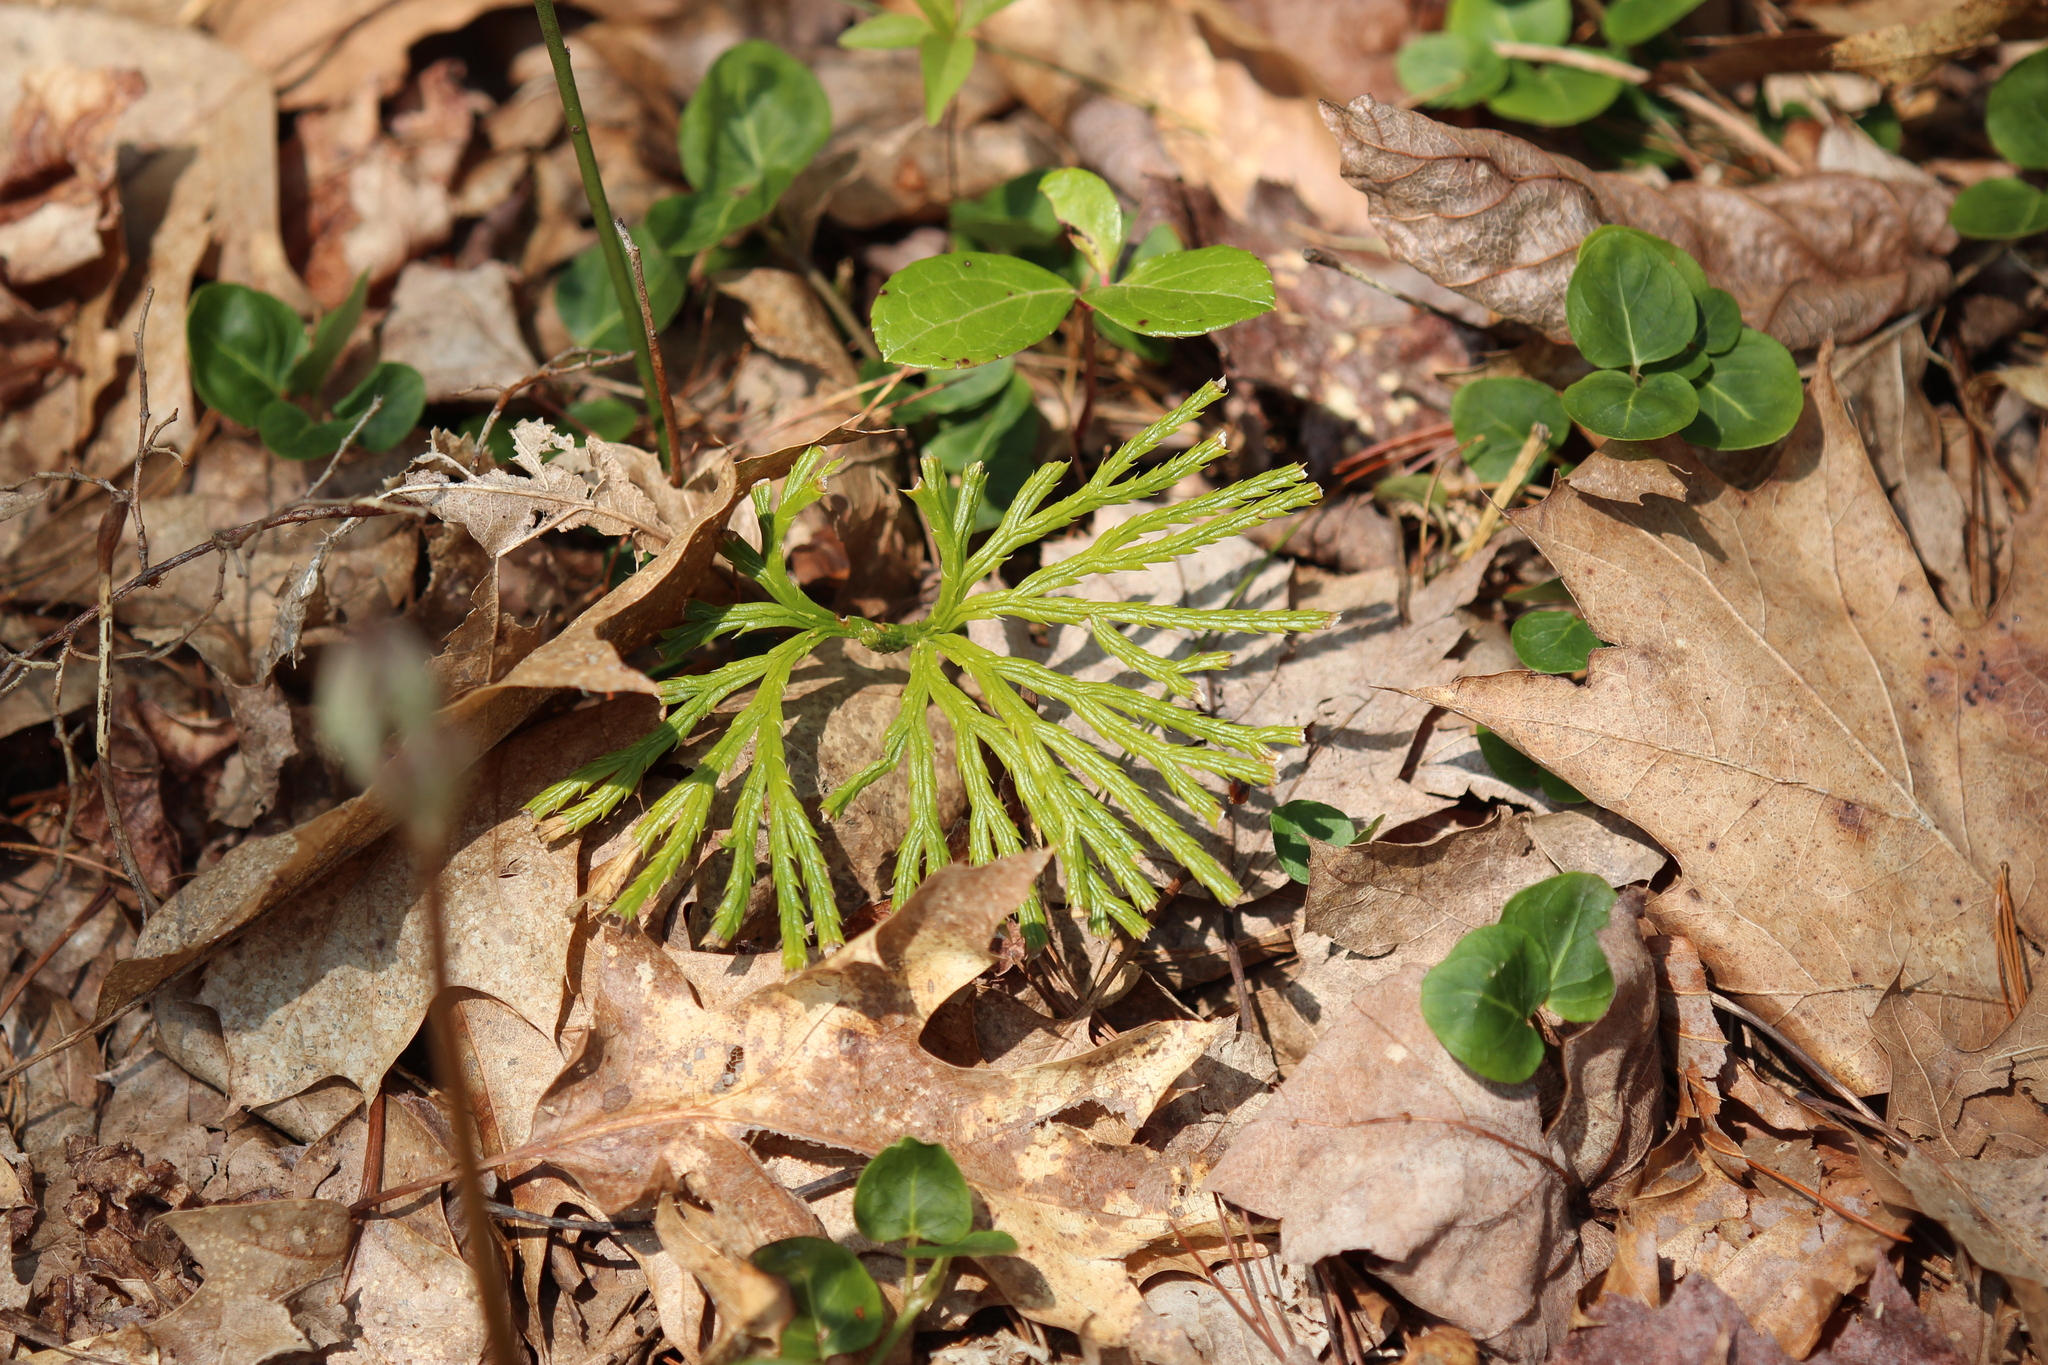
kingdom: Plantae
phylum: Tracheophyta
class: Lycopodiopsida
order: Lycopodiales
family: Lycopodiaceae
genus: Diphasiastrum
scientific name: Diphasiastrum digitatum
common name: Southern running-pine
